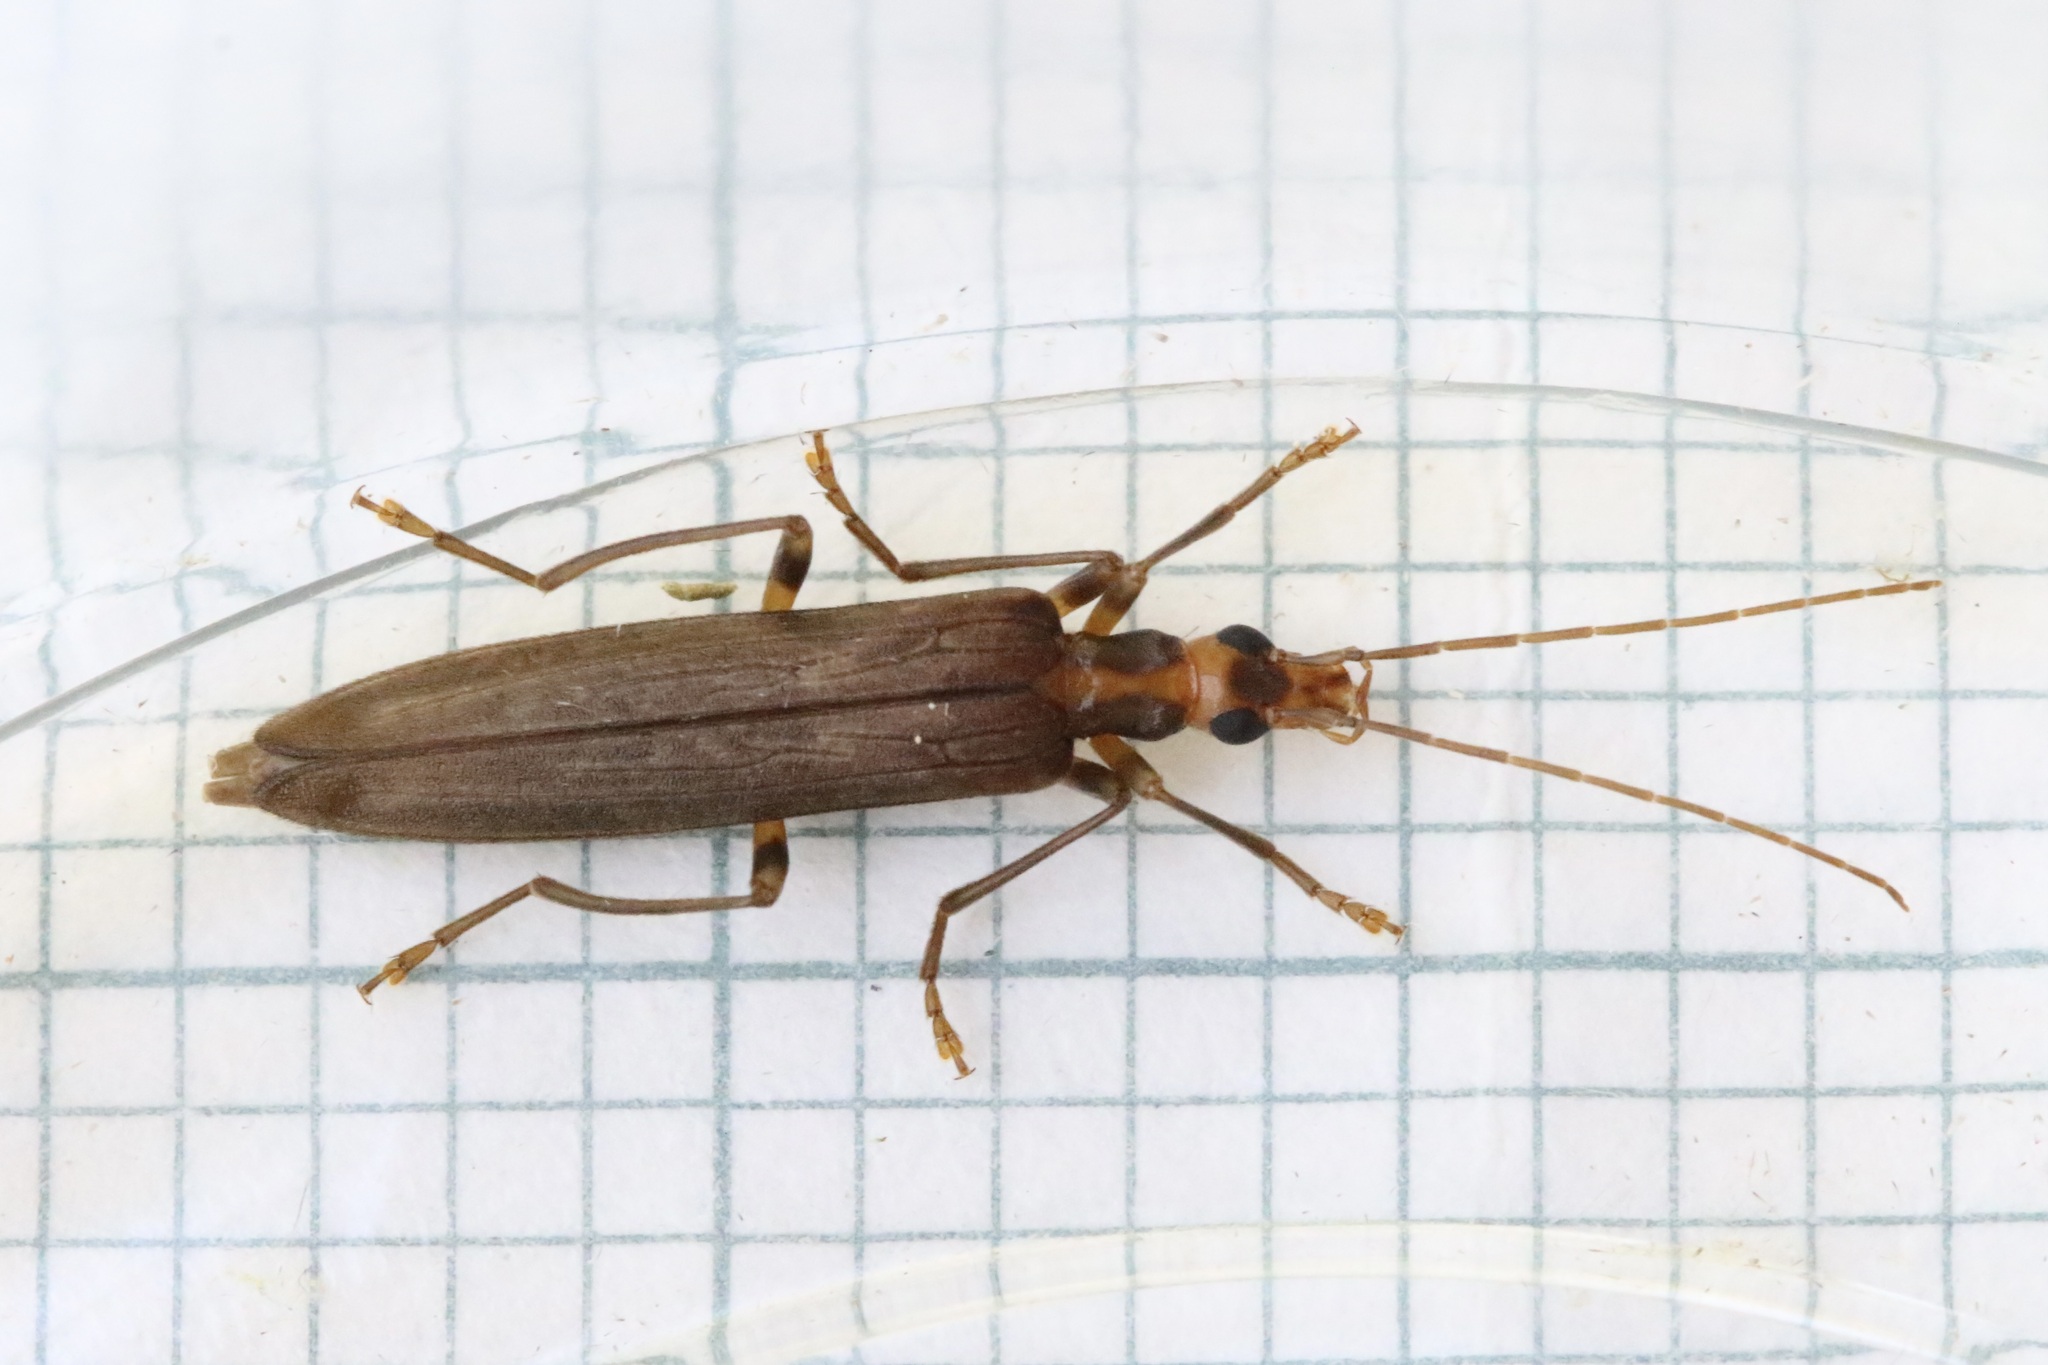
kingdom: Animalia
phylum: Arthropoda
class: Insecta
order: Coleoptera
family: Oedemeridae
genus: Oedemera
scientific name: Oedemera femoralis
